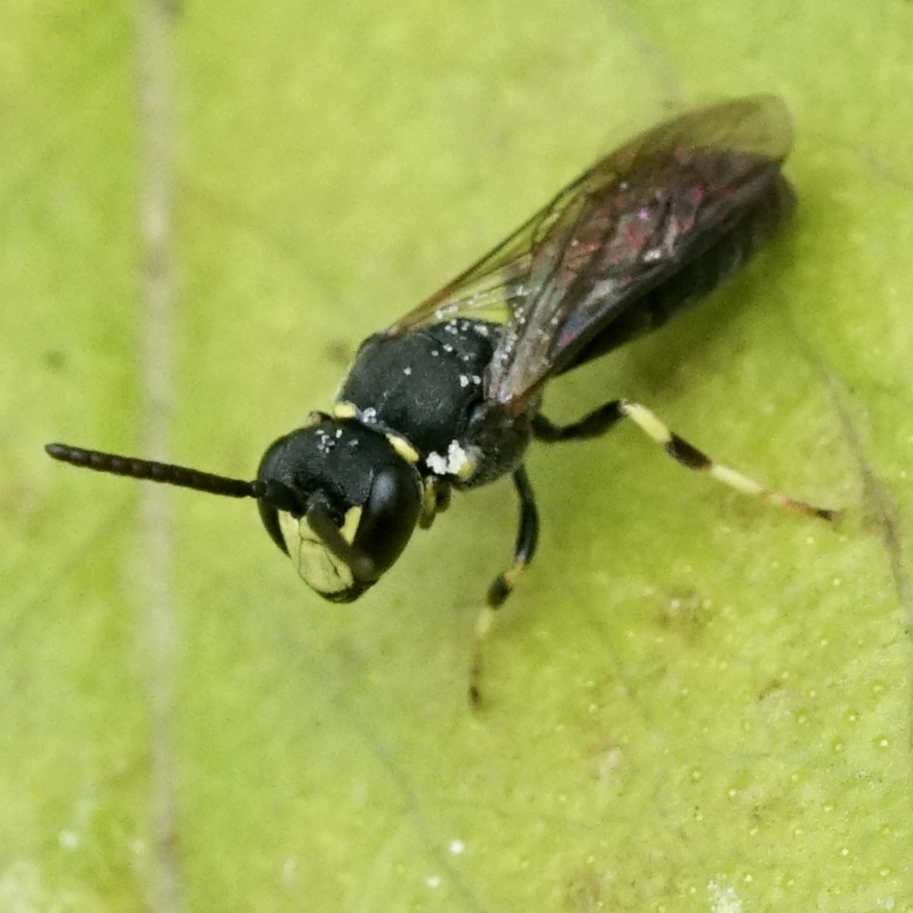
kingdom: Animalia
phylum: Arthropoda
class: Insecta
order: Hymenoptera
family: Colletidae
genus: Hylaeus
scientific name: Hylaeus modestus
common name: Yellow-faced bee
